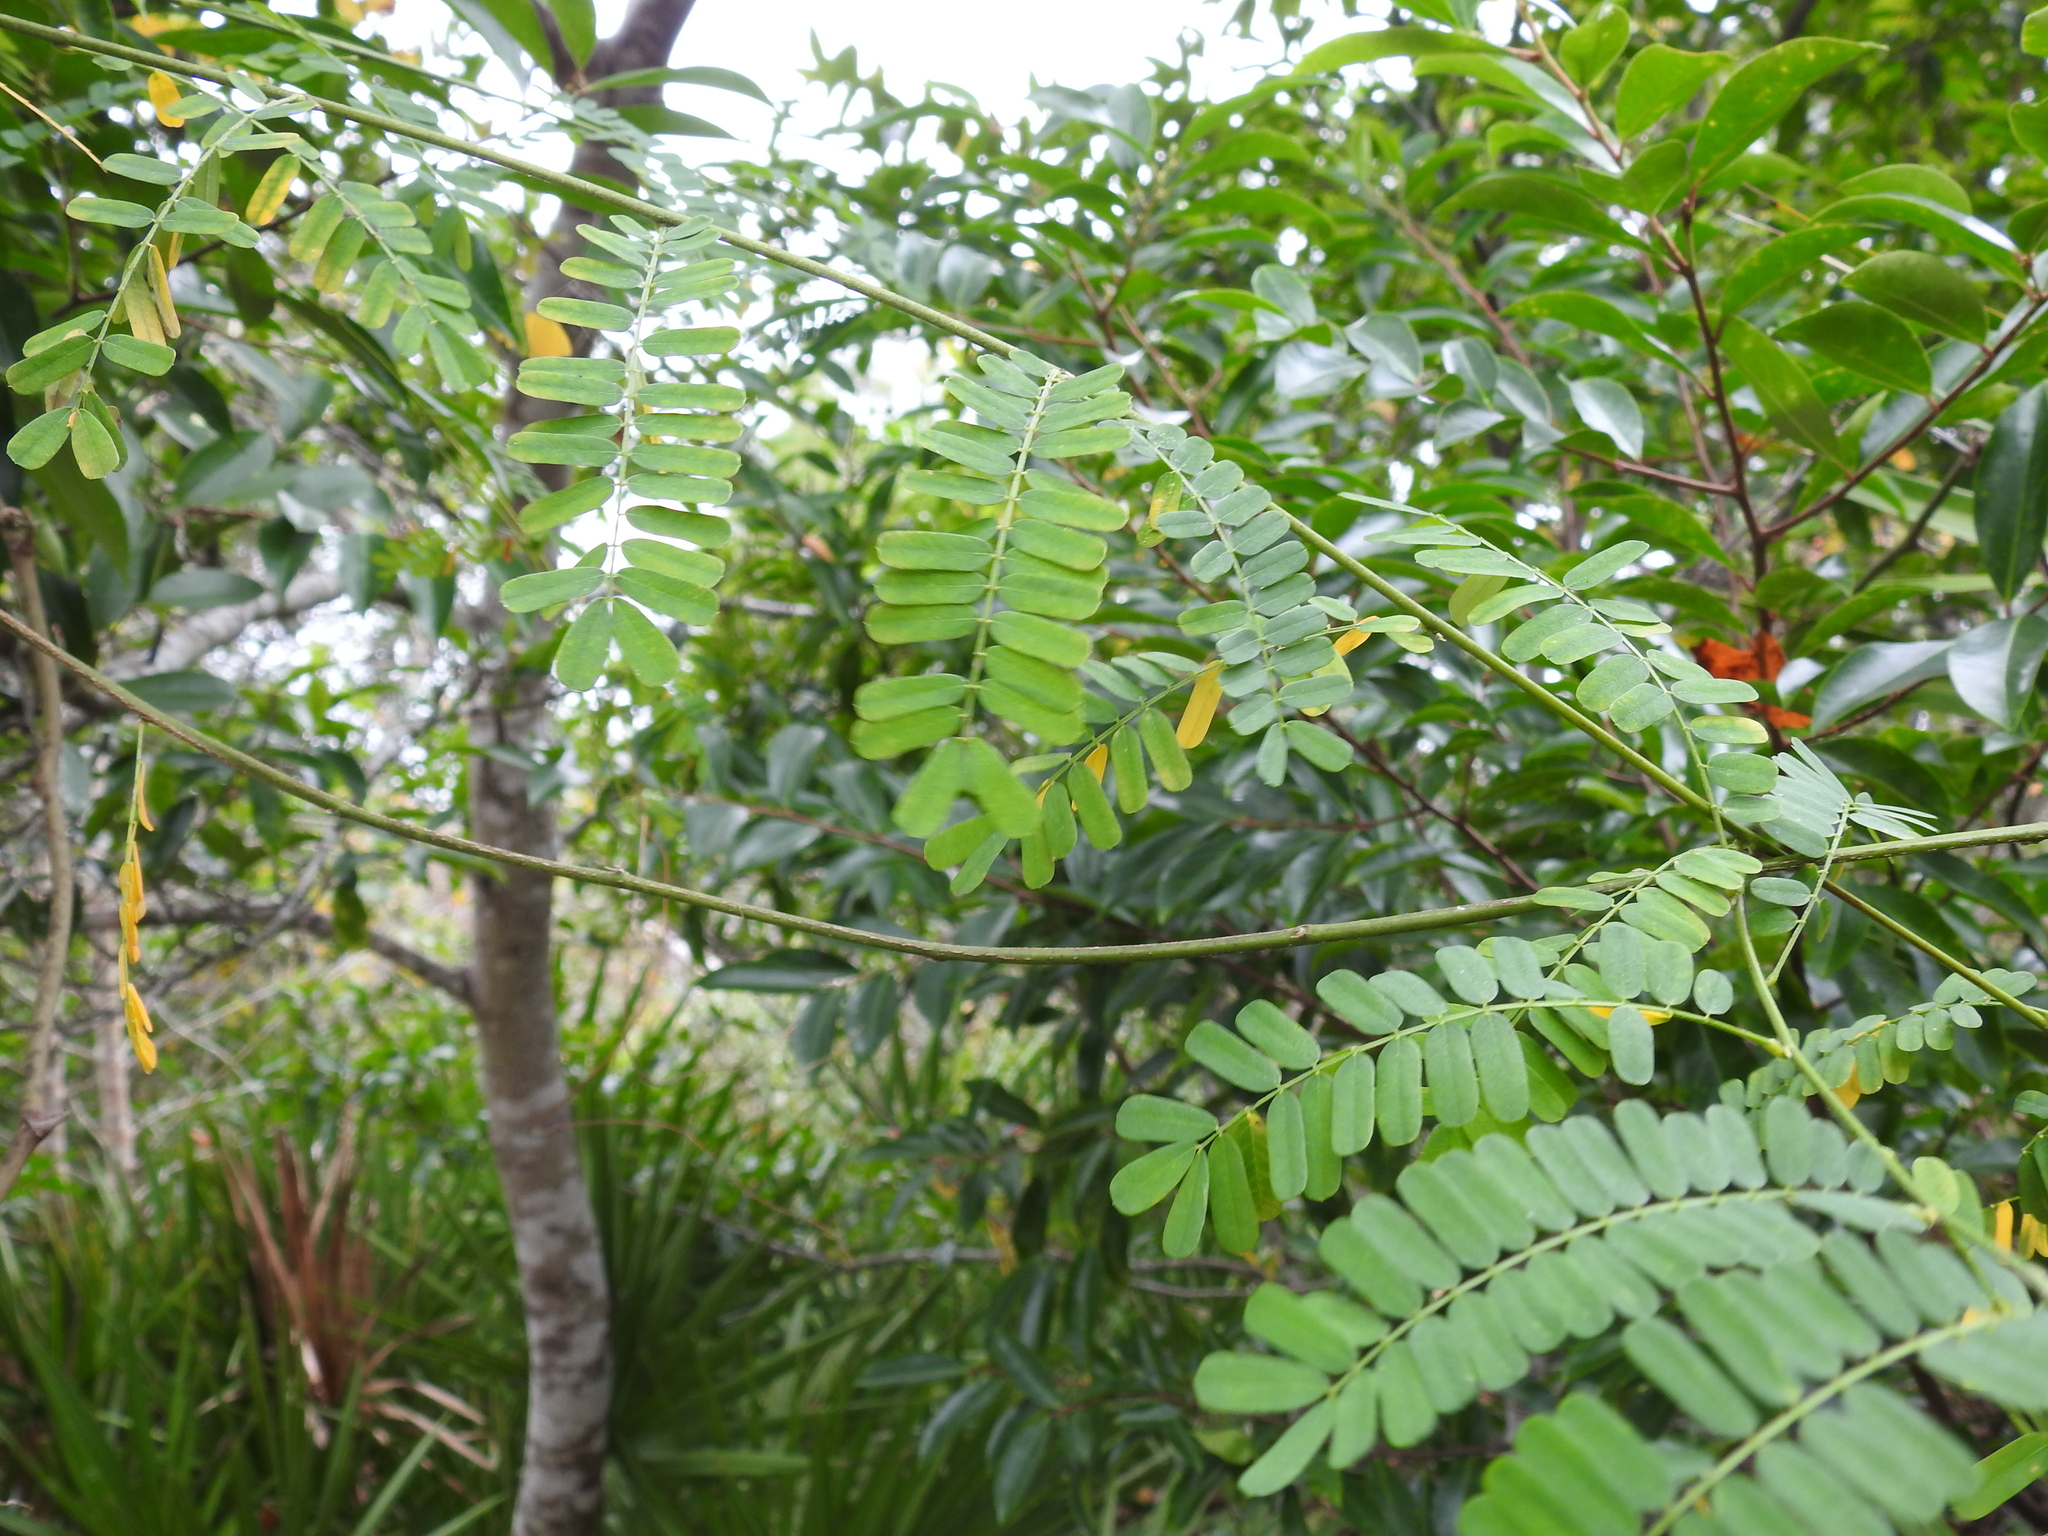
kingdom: Plantae
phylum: Tracheophyta
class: Magnoliopsida
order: Fabales
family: Fabaceae
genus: Abrus
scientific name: Abrus precatorius
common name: Rosarypea
